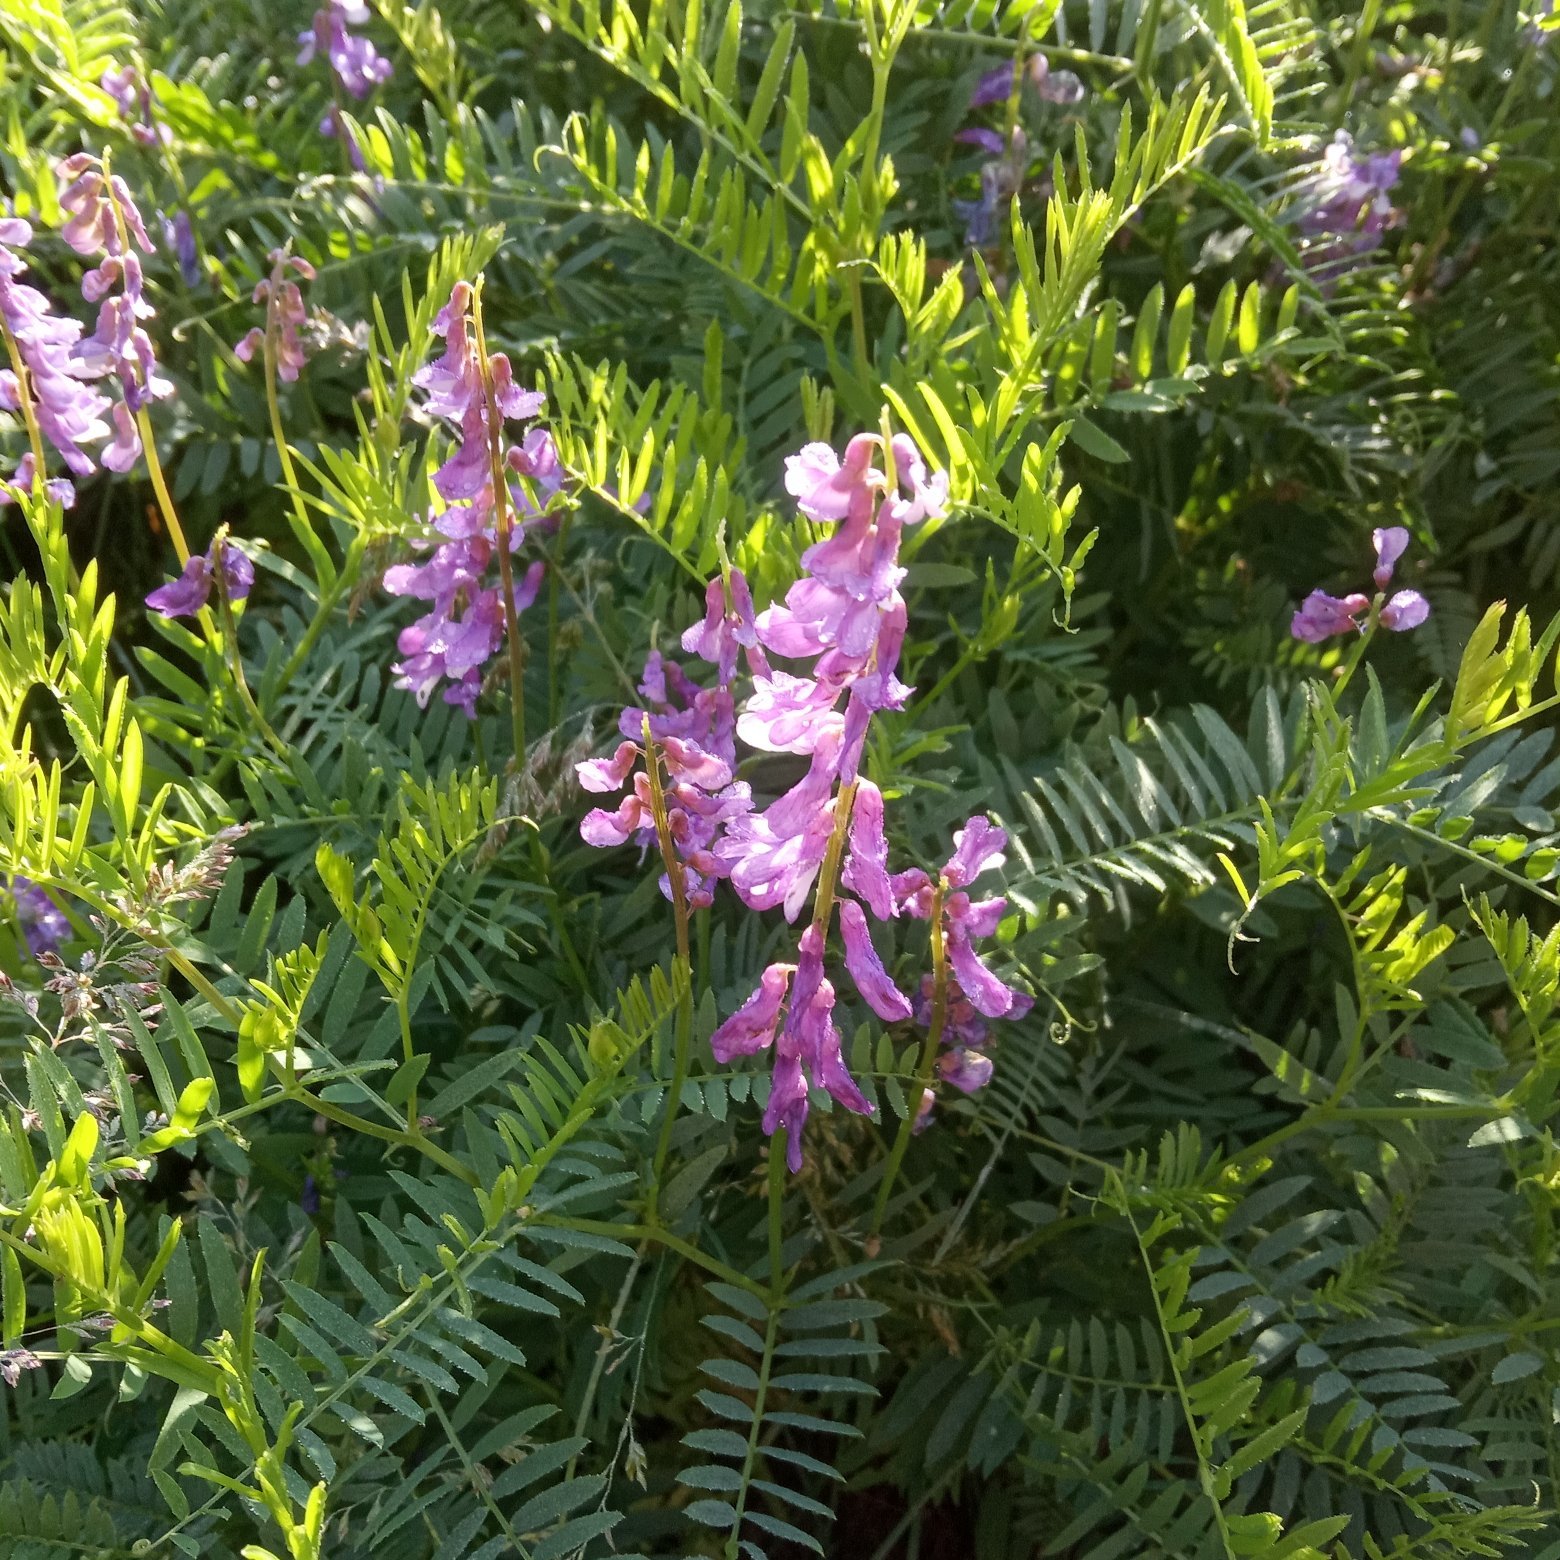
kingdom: Plantae
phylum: Tracheophyta
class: Magnoliopsida
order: Fabales
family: Fabaceae
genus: Vicia
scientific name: Vicia tenuifolia
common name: Fine-leaved vetch
